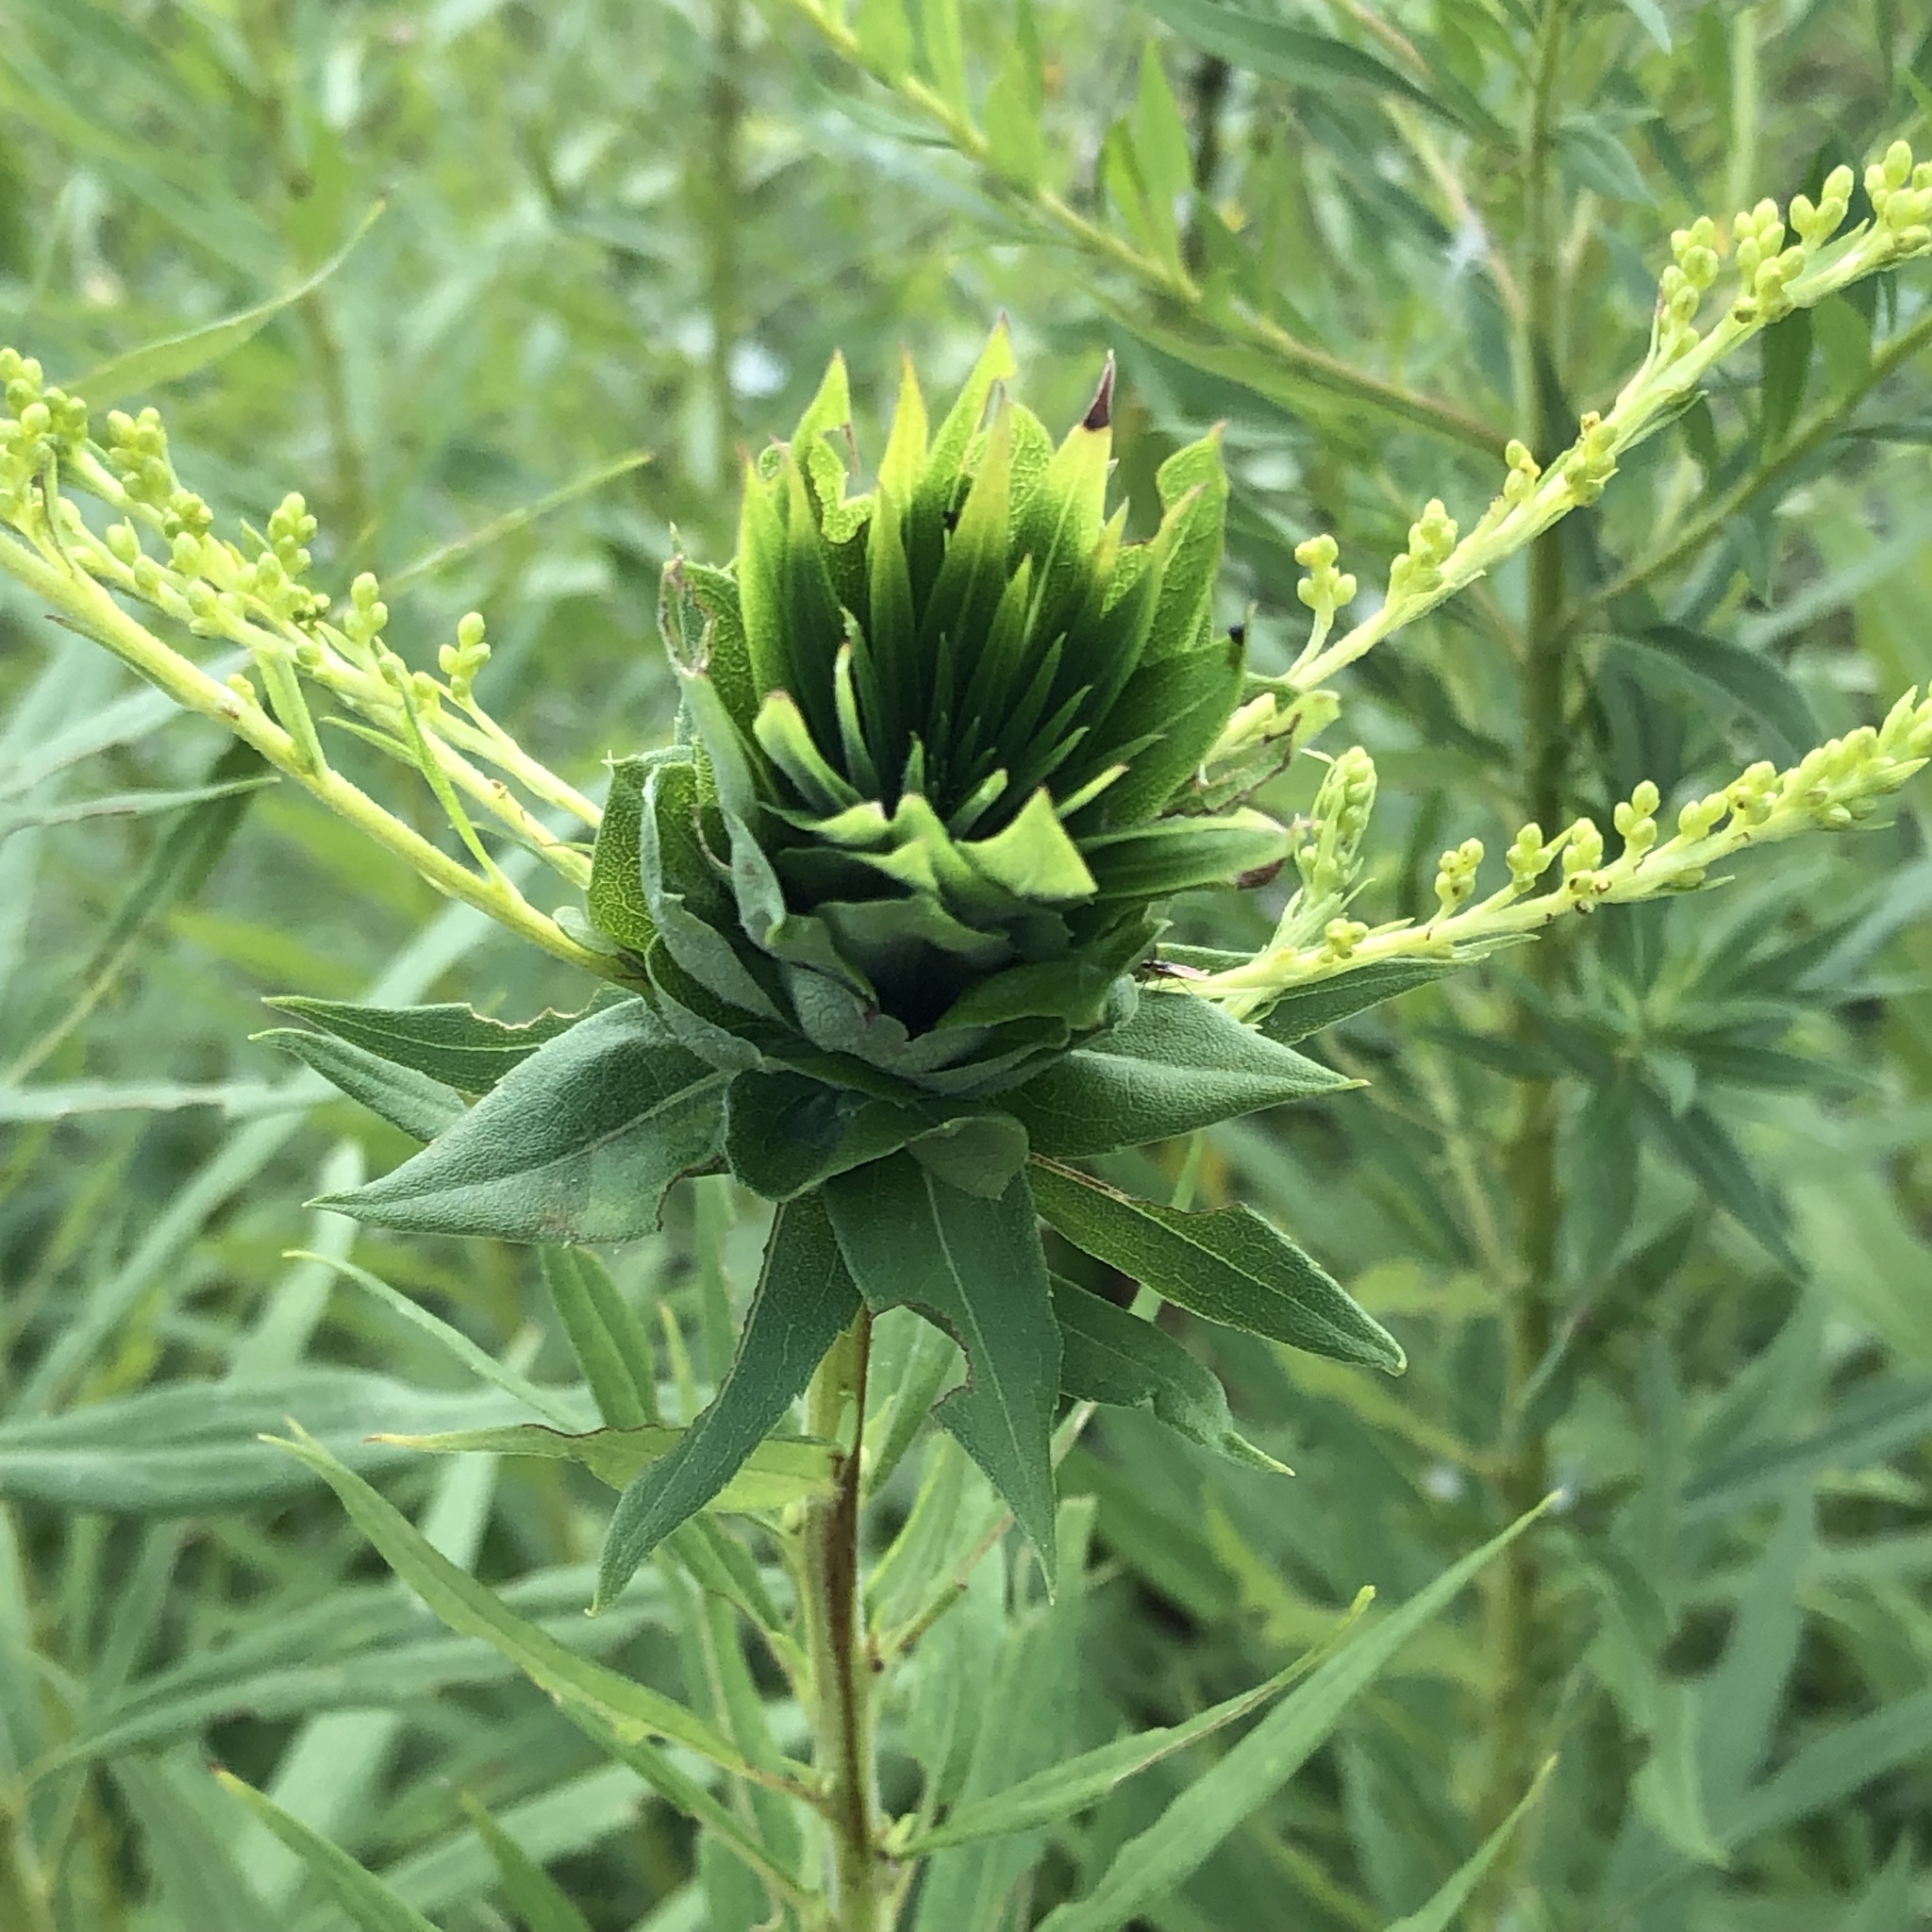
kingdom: Animalia
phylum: Arthropoda
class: Insecta
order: Diptera
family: Cecidomyiidae
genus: Rhopalomyia
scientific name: Rhopalomyia solidaginis
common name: Goldenrod bunch gall midge
